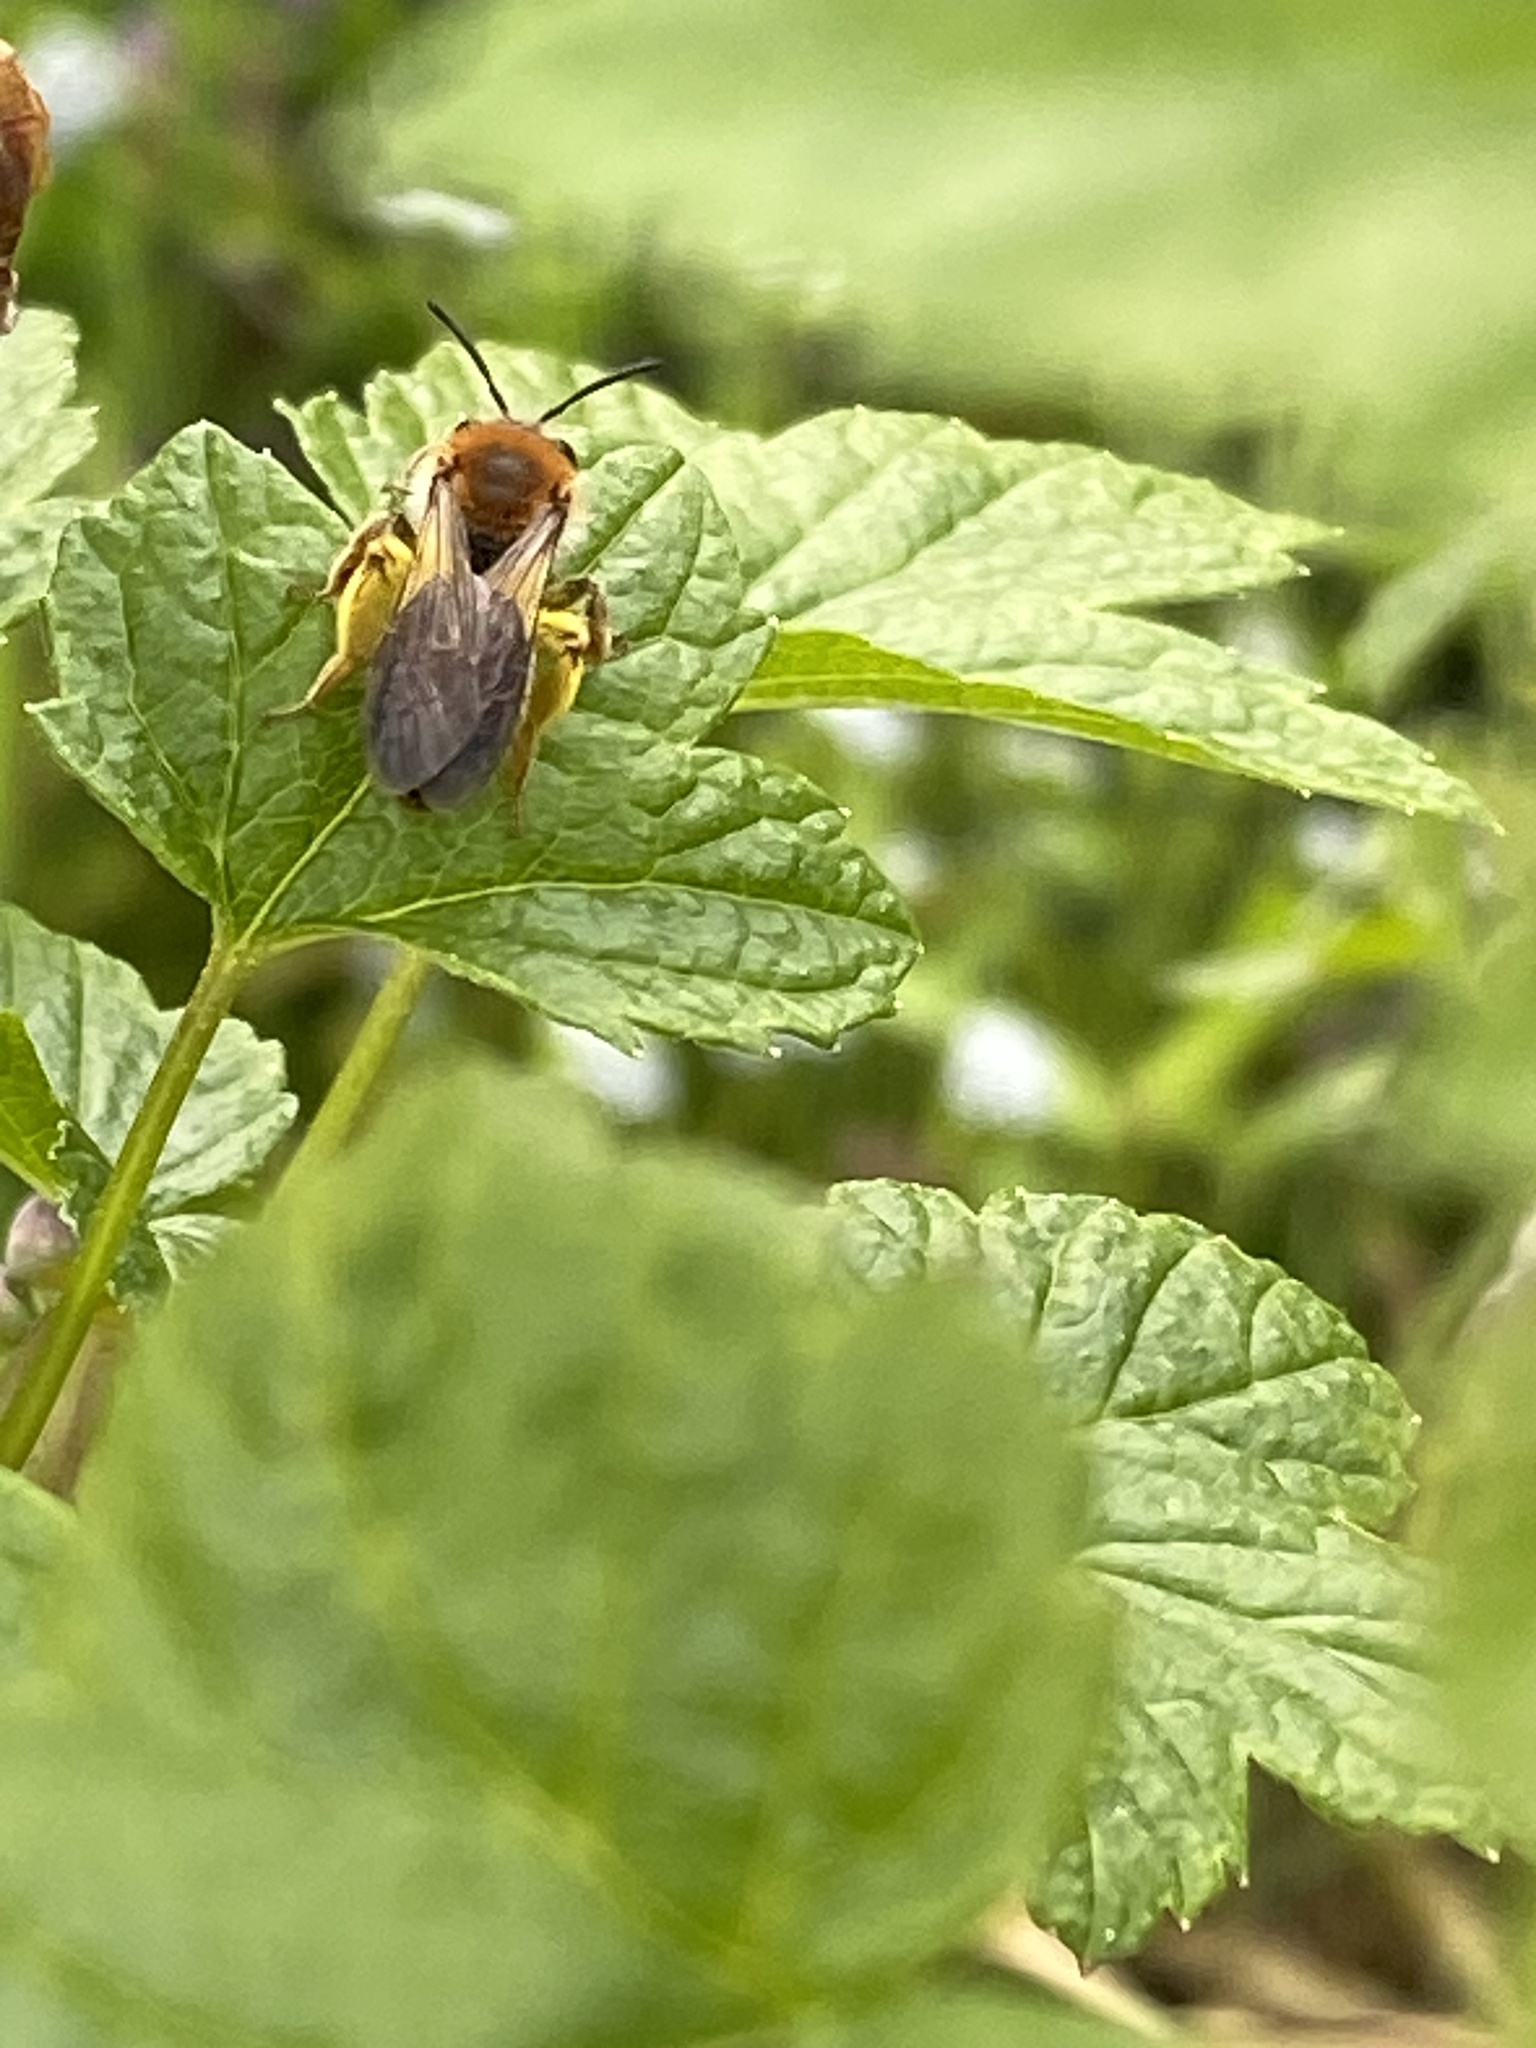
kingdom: Animalia
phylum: Arthropoda
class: Insecta
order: Hymenoptera
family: Andrenidae
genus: Andrena
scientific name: Andrena haemorrhoa
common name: Early mining bee
